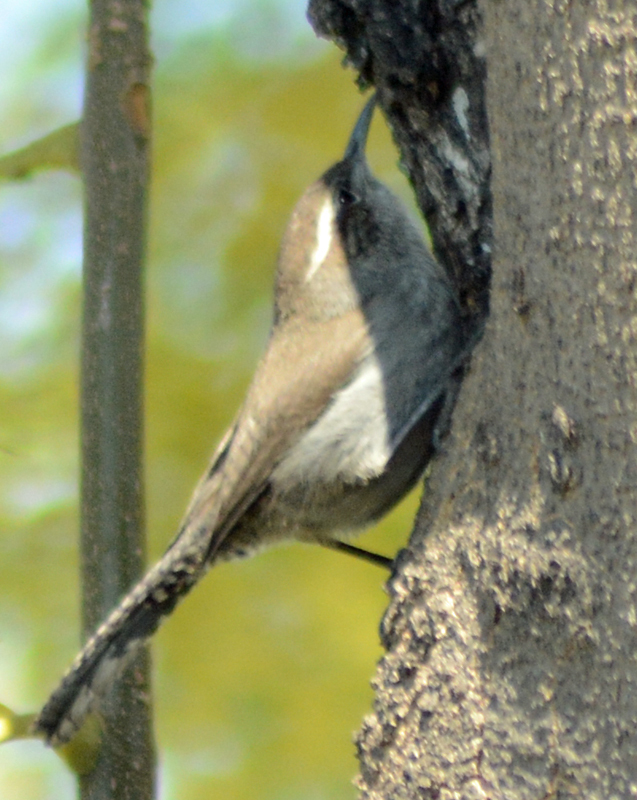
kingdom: Animalia
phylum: Chordata
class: Aves
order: Passeriformes
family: Troglodytidae
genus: Thryomanes
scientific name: Thryomanes bewickii
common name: Bewick's wren
